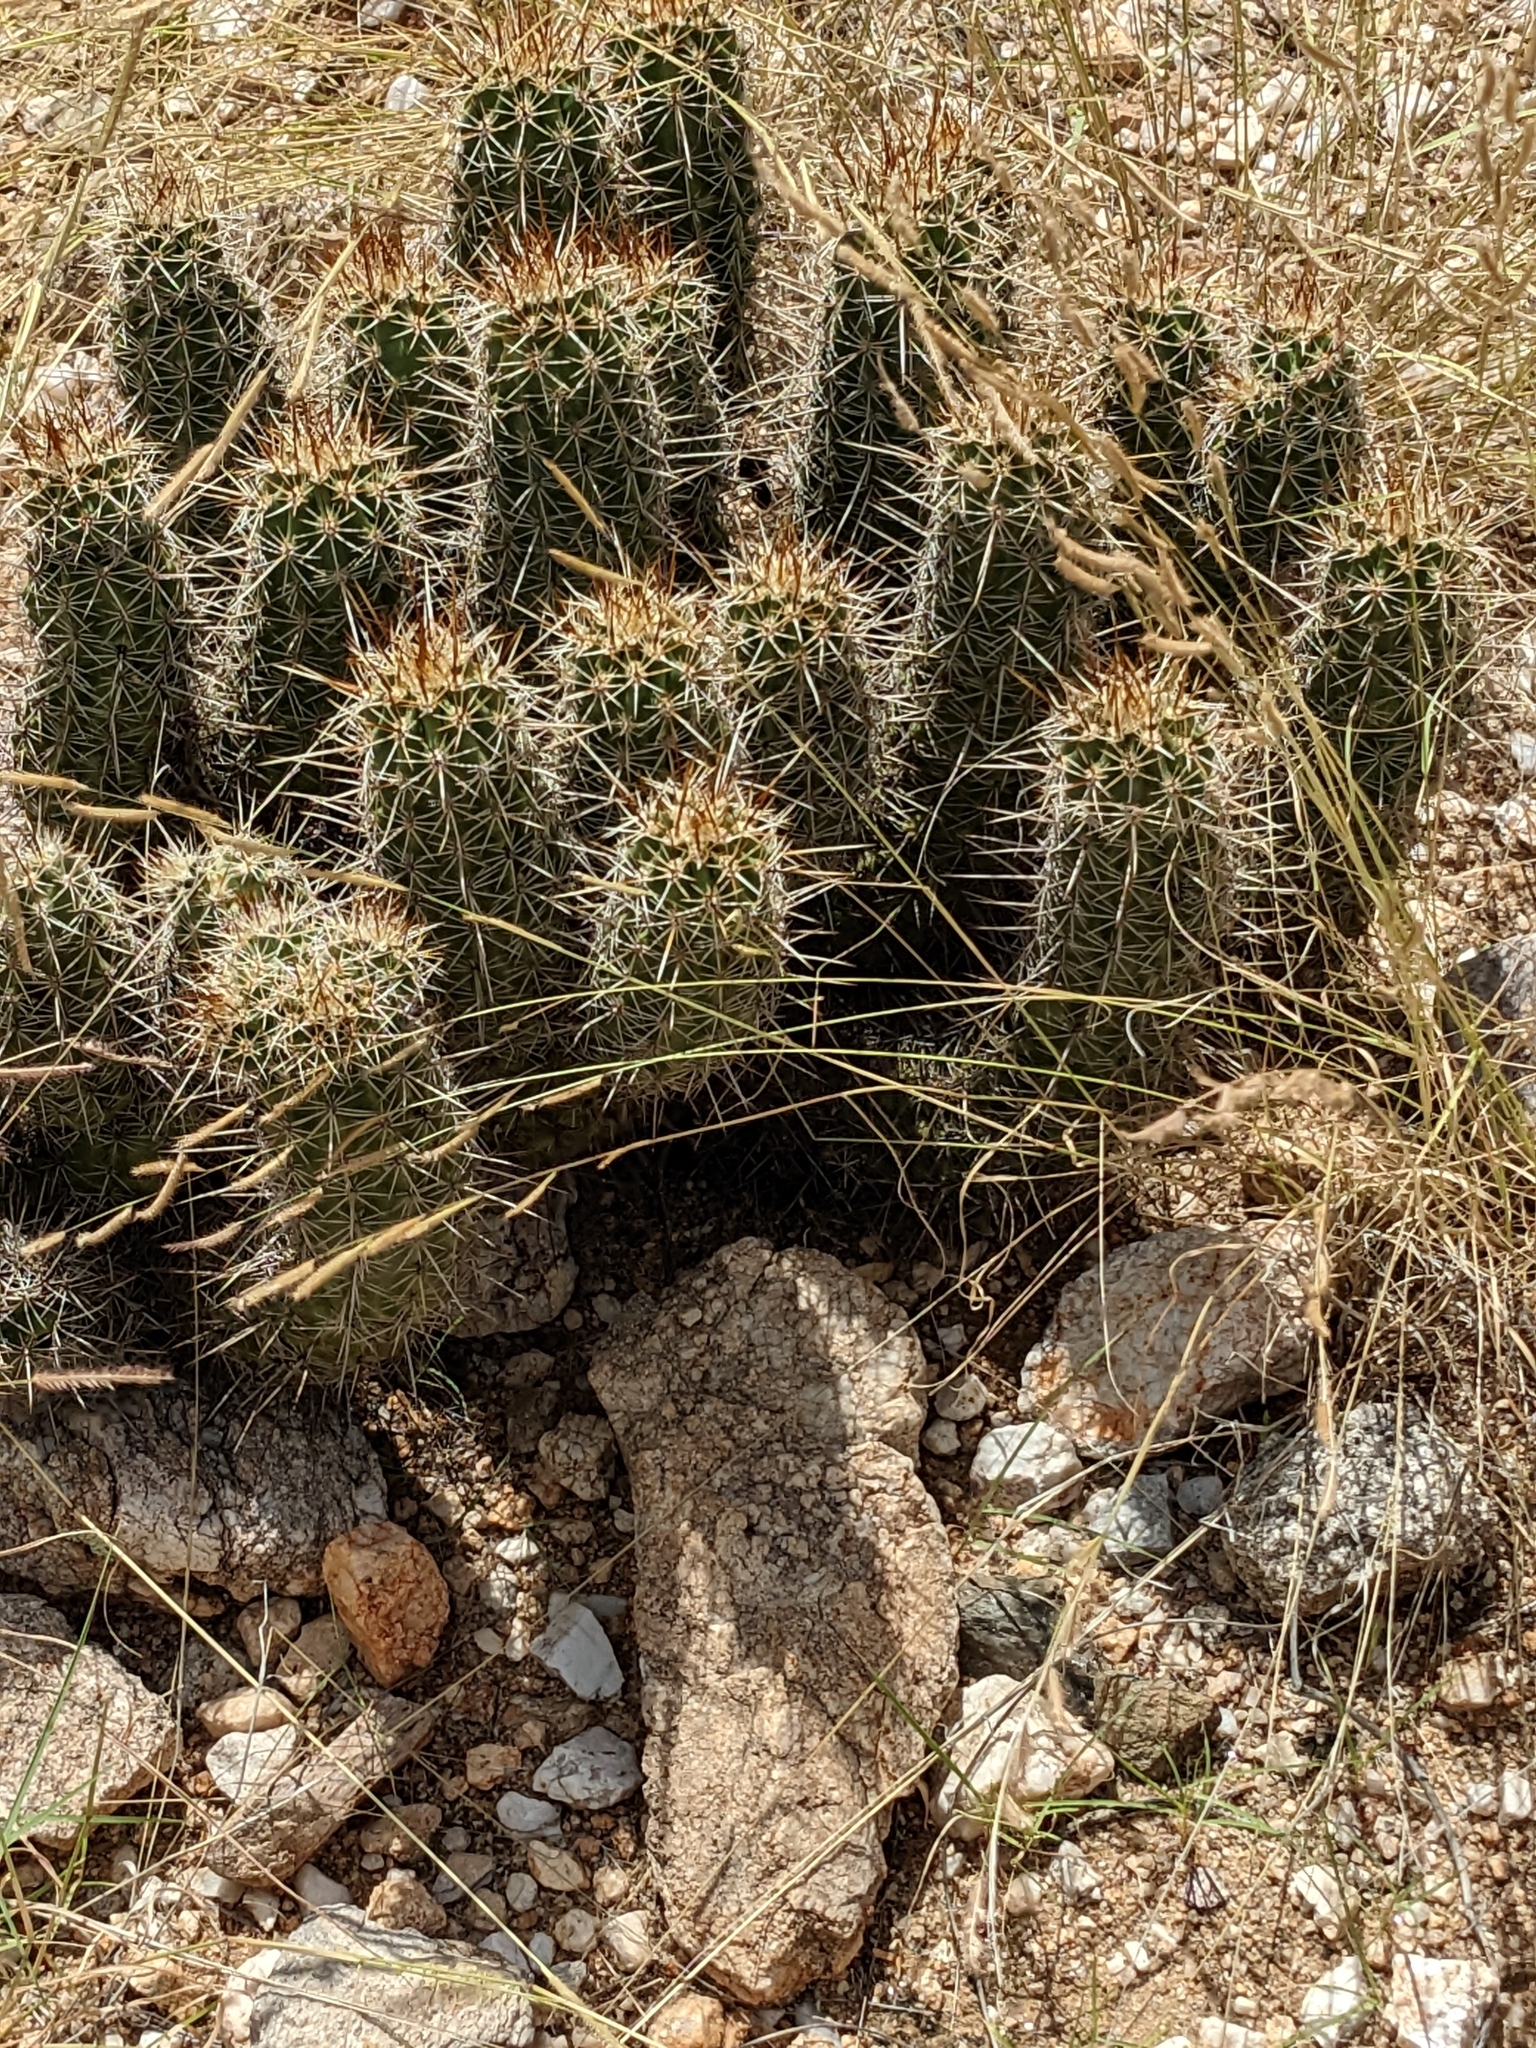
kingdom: Plantae
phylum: Tracheophyta
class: Magnoliopsida
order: Caryophyllales
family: Cactaceae
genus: Echinocereus
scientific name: Echinocereus fasciculatus
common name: Bundle hedgehog
